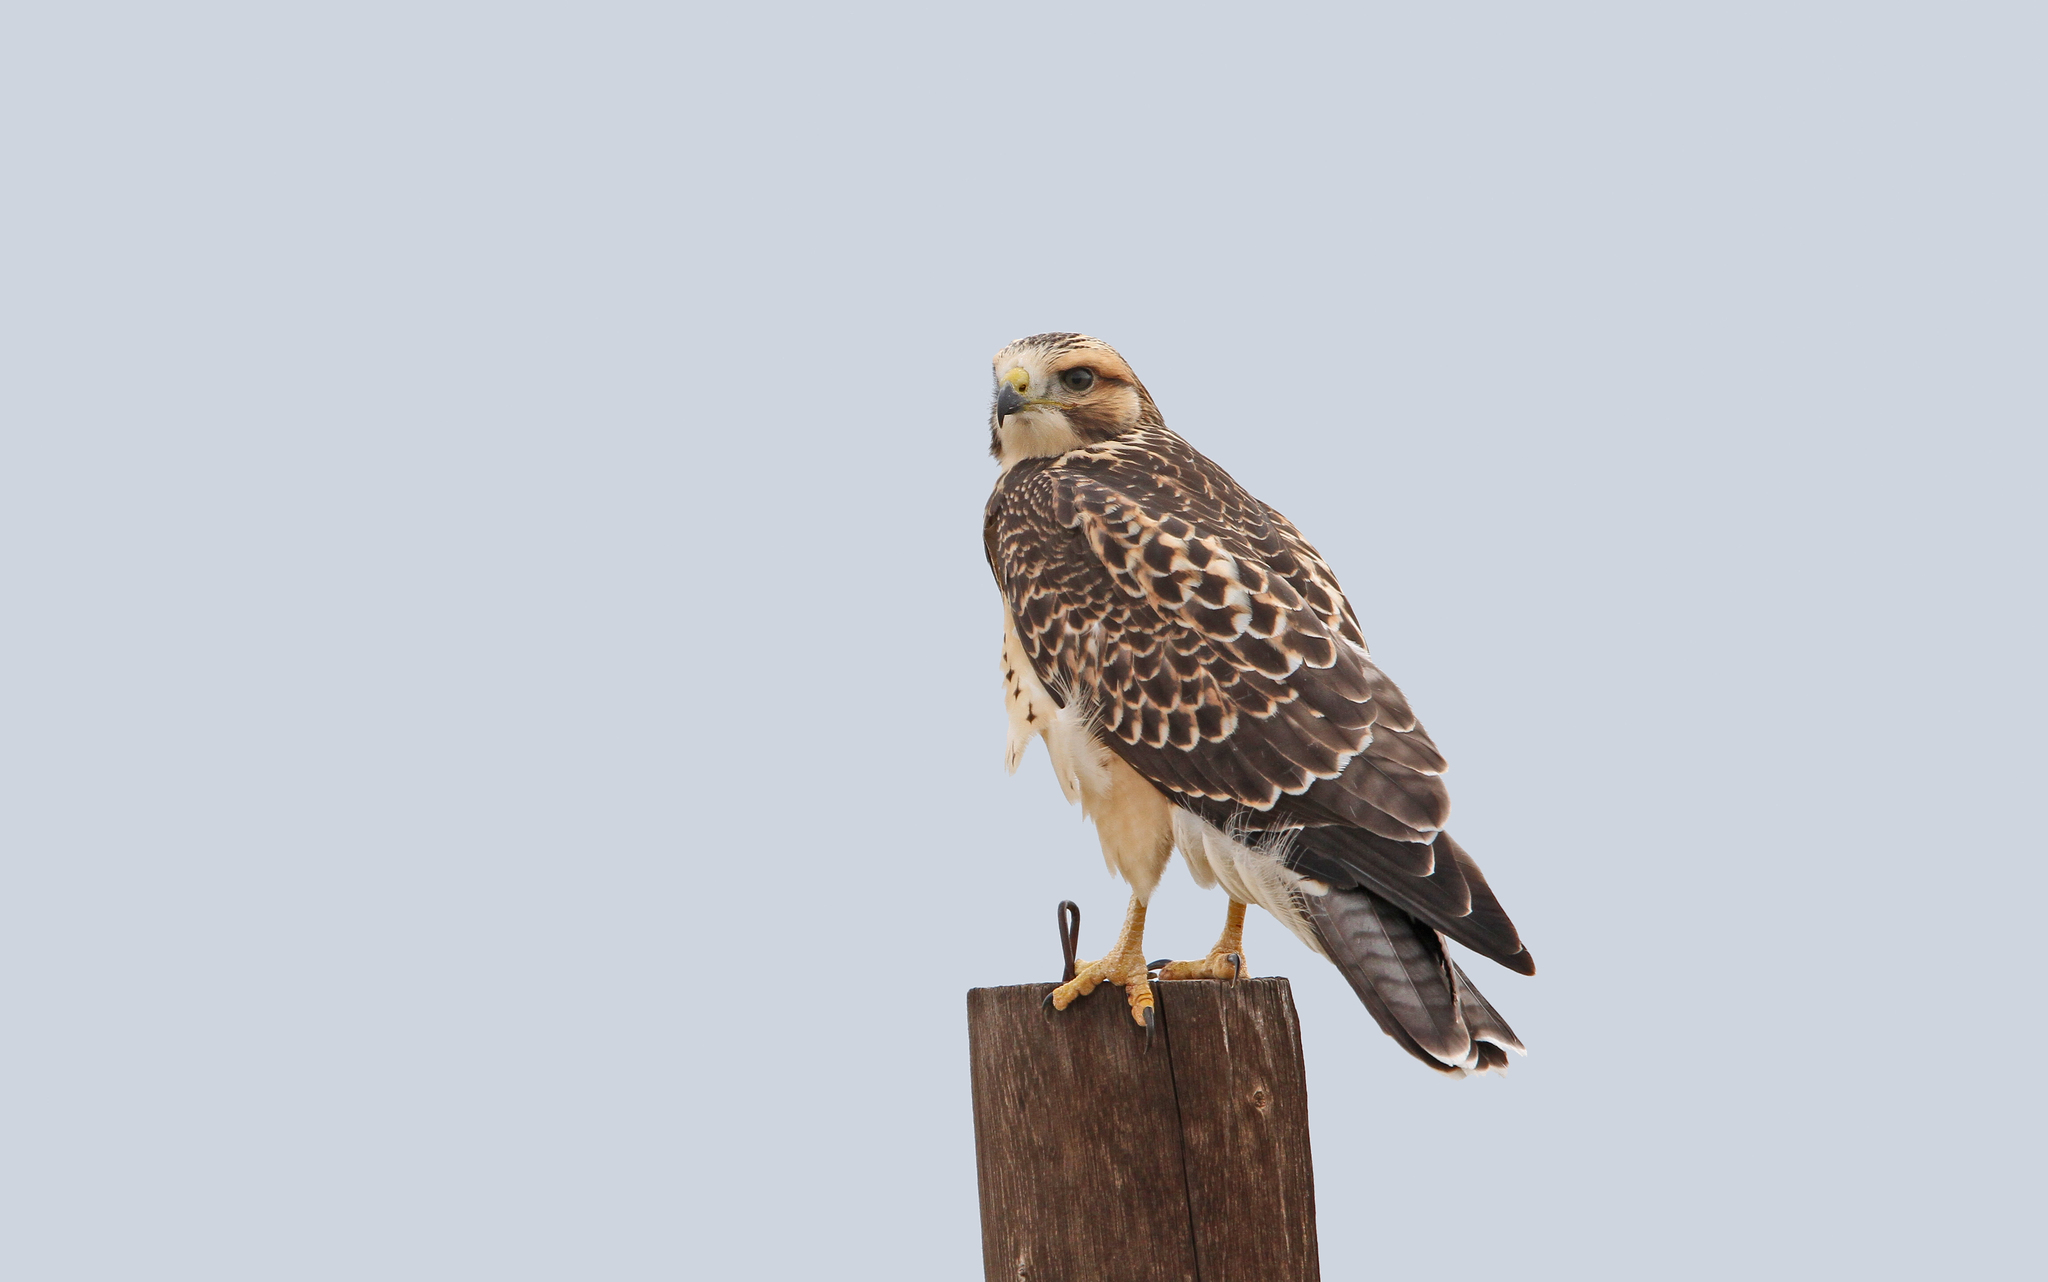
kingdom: Animalia
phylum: Chordata
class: Aves
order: Accipitriformes
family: Accipitridae
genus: Buteo
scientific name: Buteo swainsoni
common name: Swainson's hawk
